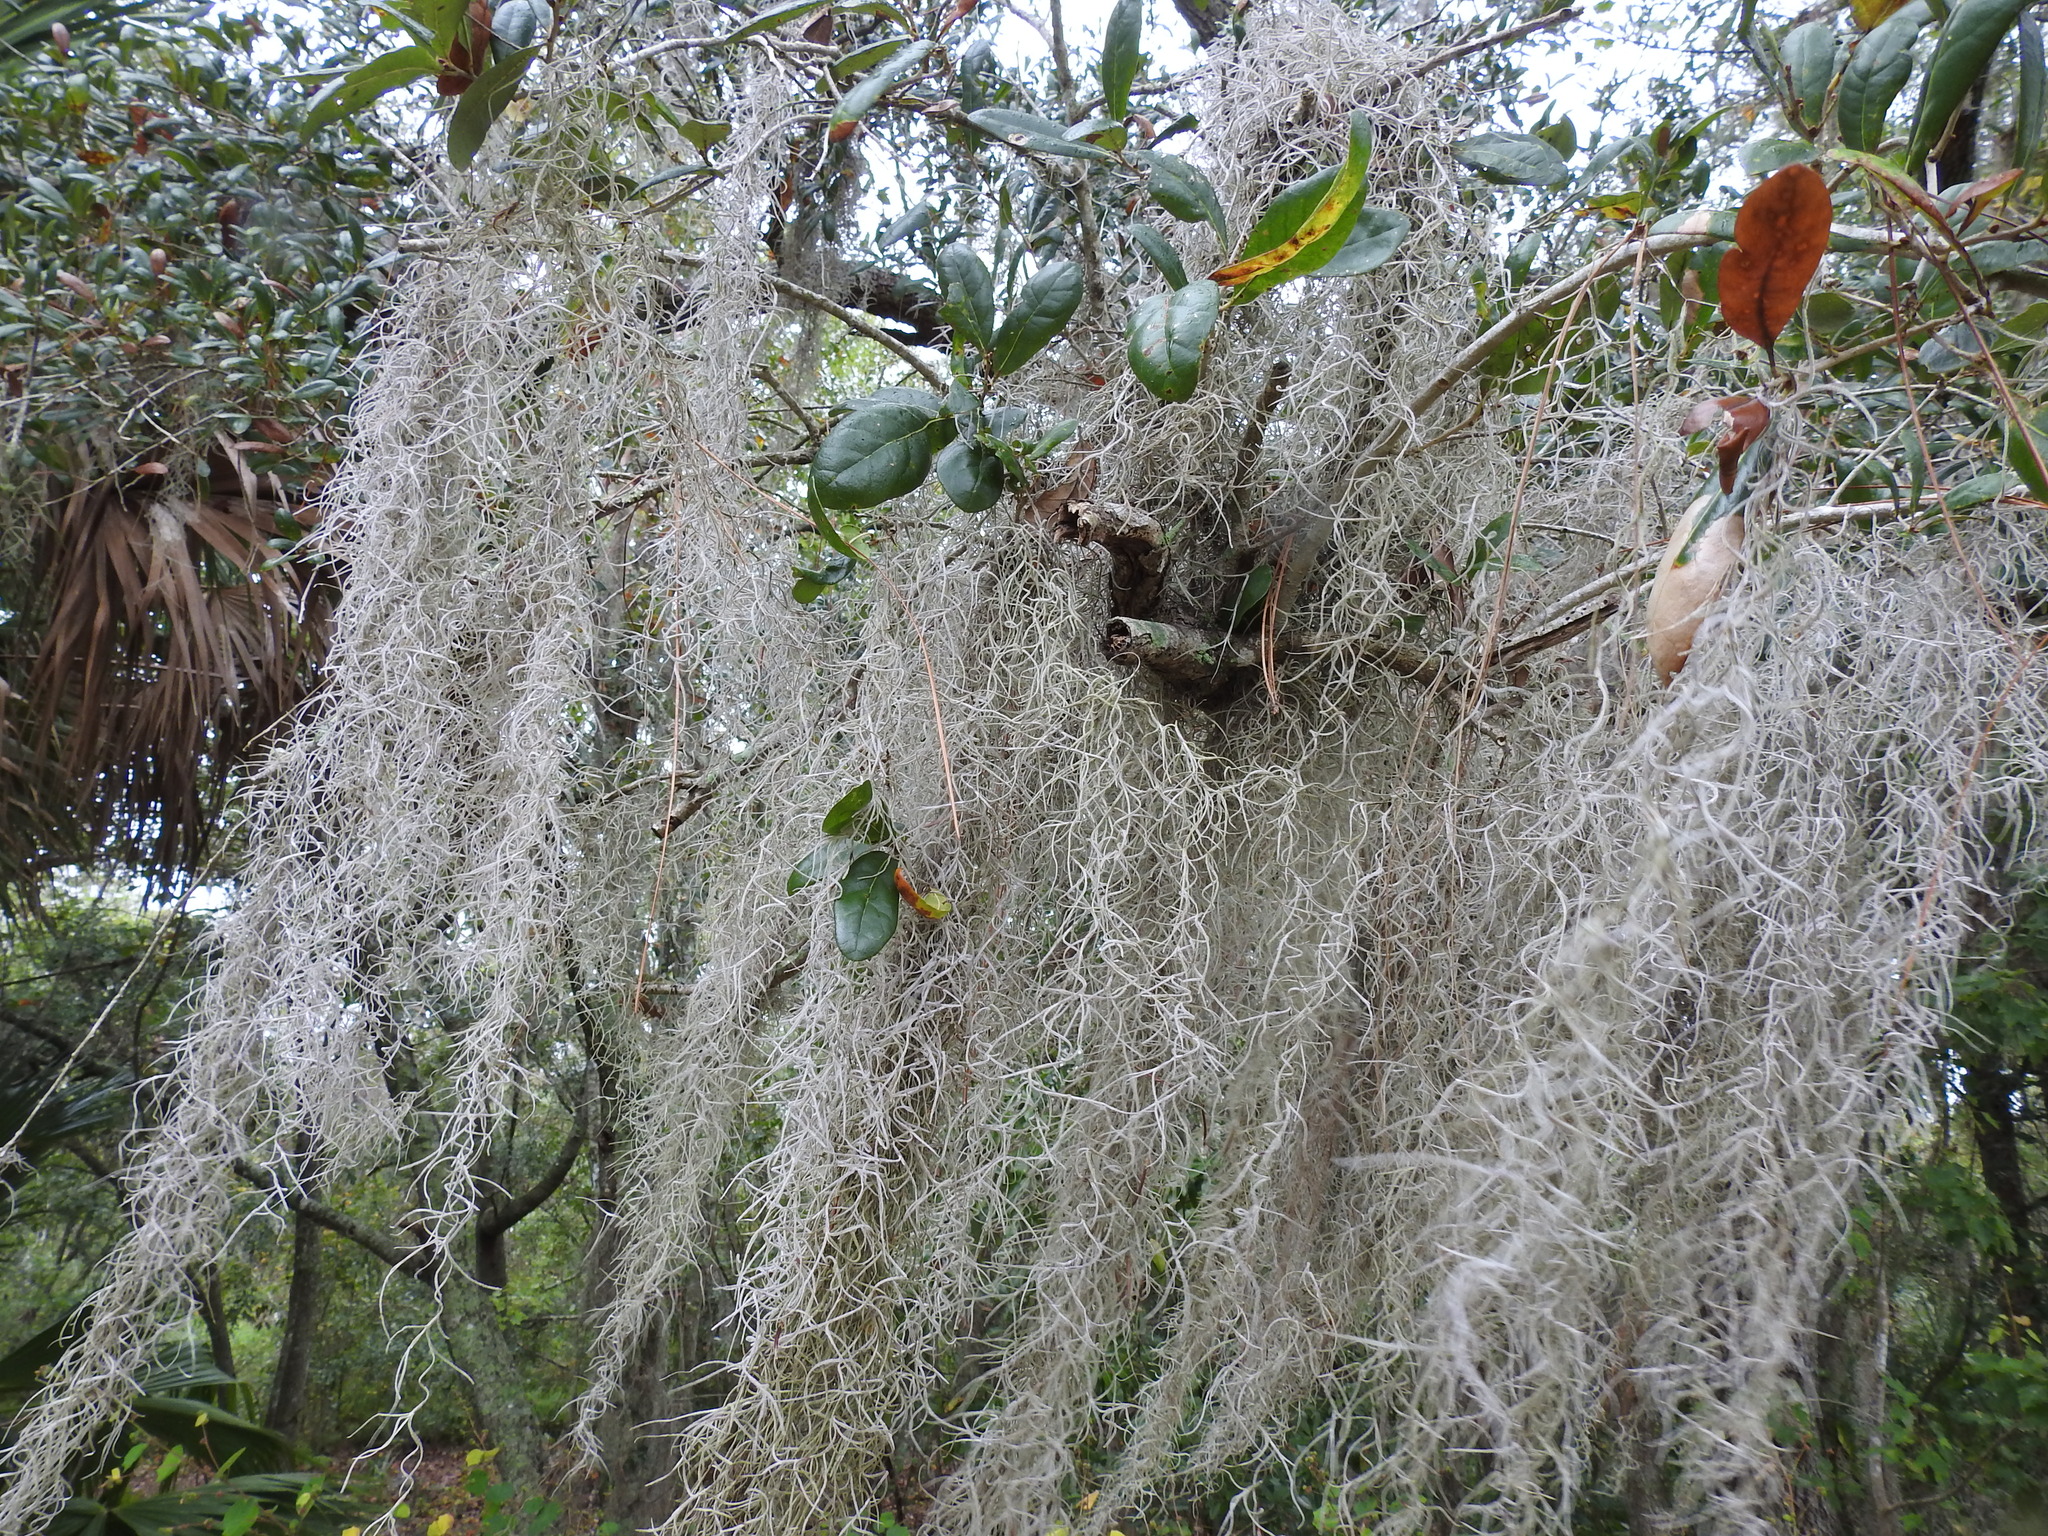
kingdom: Plantae
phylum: Tracheophyta
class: Liliopsida
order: Poales
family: Bromeliaceae
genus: Tillandsia
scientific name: Tillandsia usneoides
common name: Spanish moss
